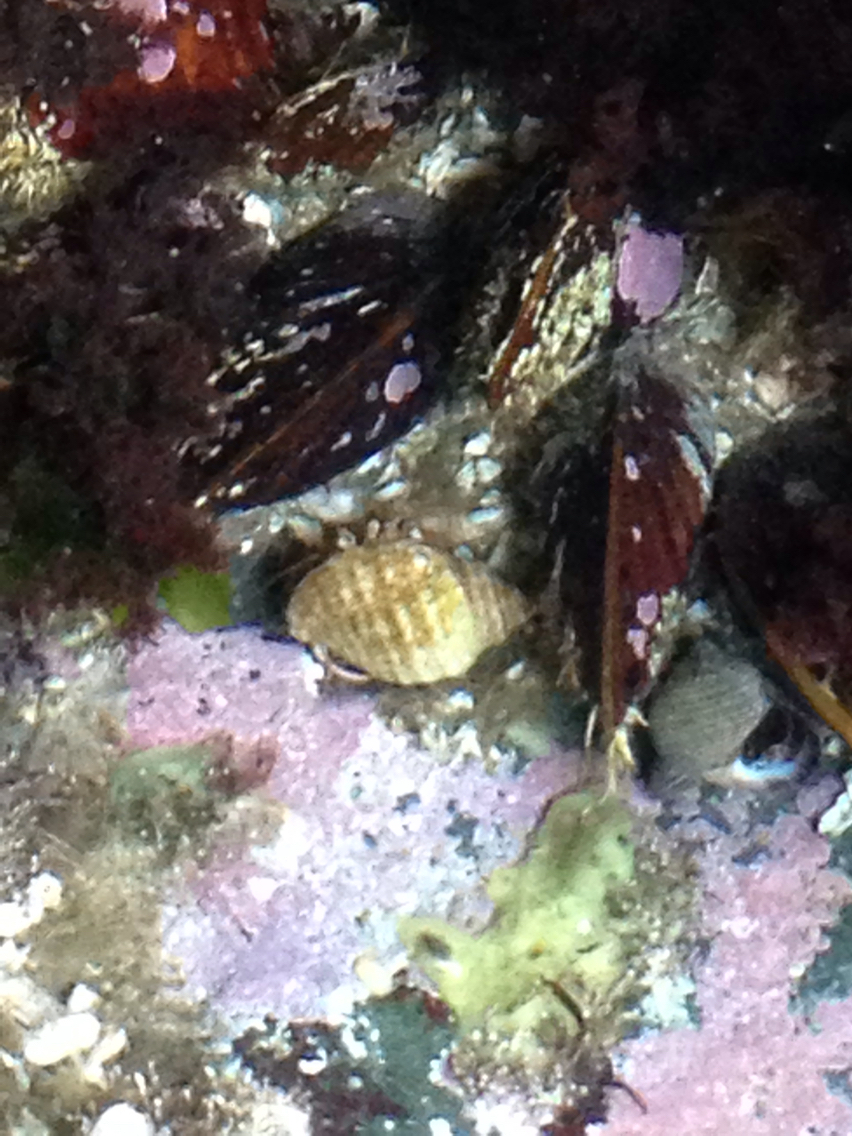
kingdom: Animalia
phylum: Arthropoda
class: Malacostraca
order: Decapoda
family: Paguridae
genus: Pagurus
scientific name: Pagurus longicarpus
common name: Long-armed hermit crab
